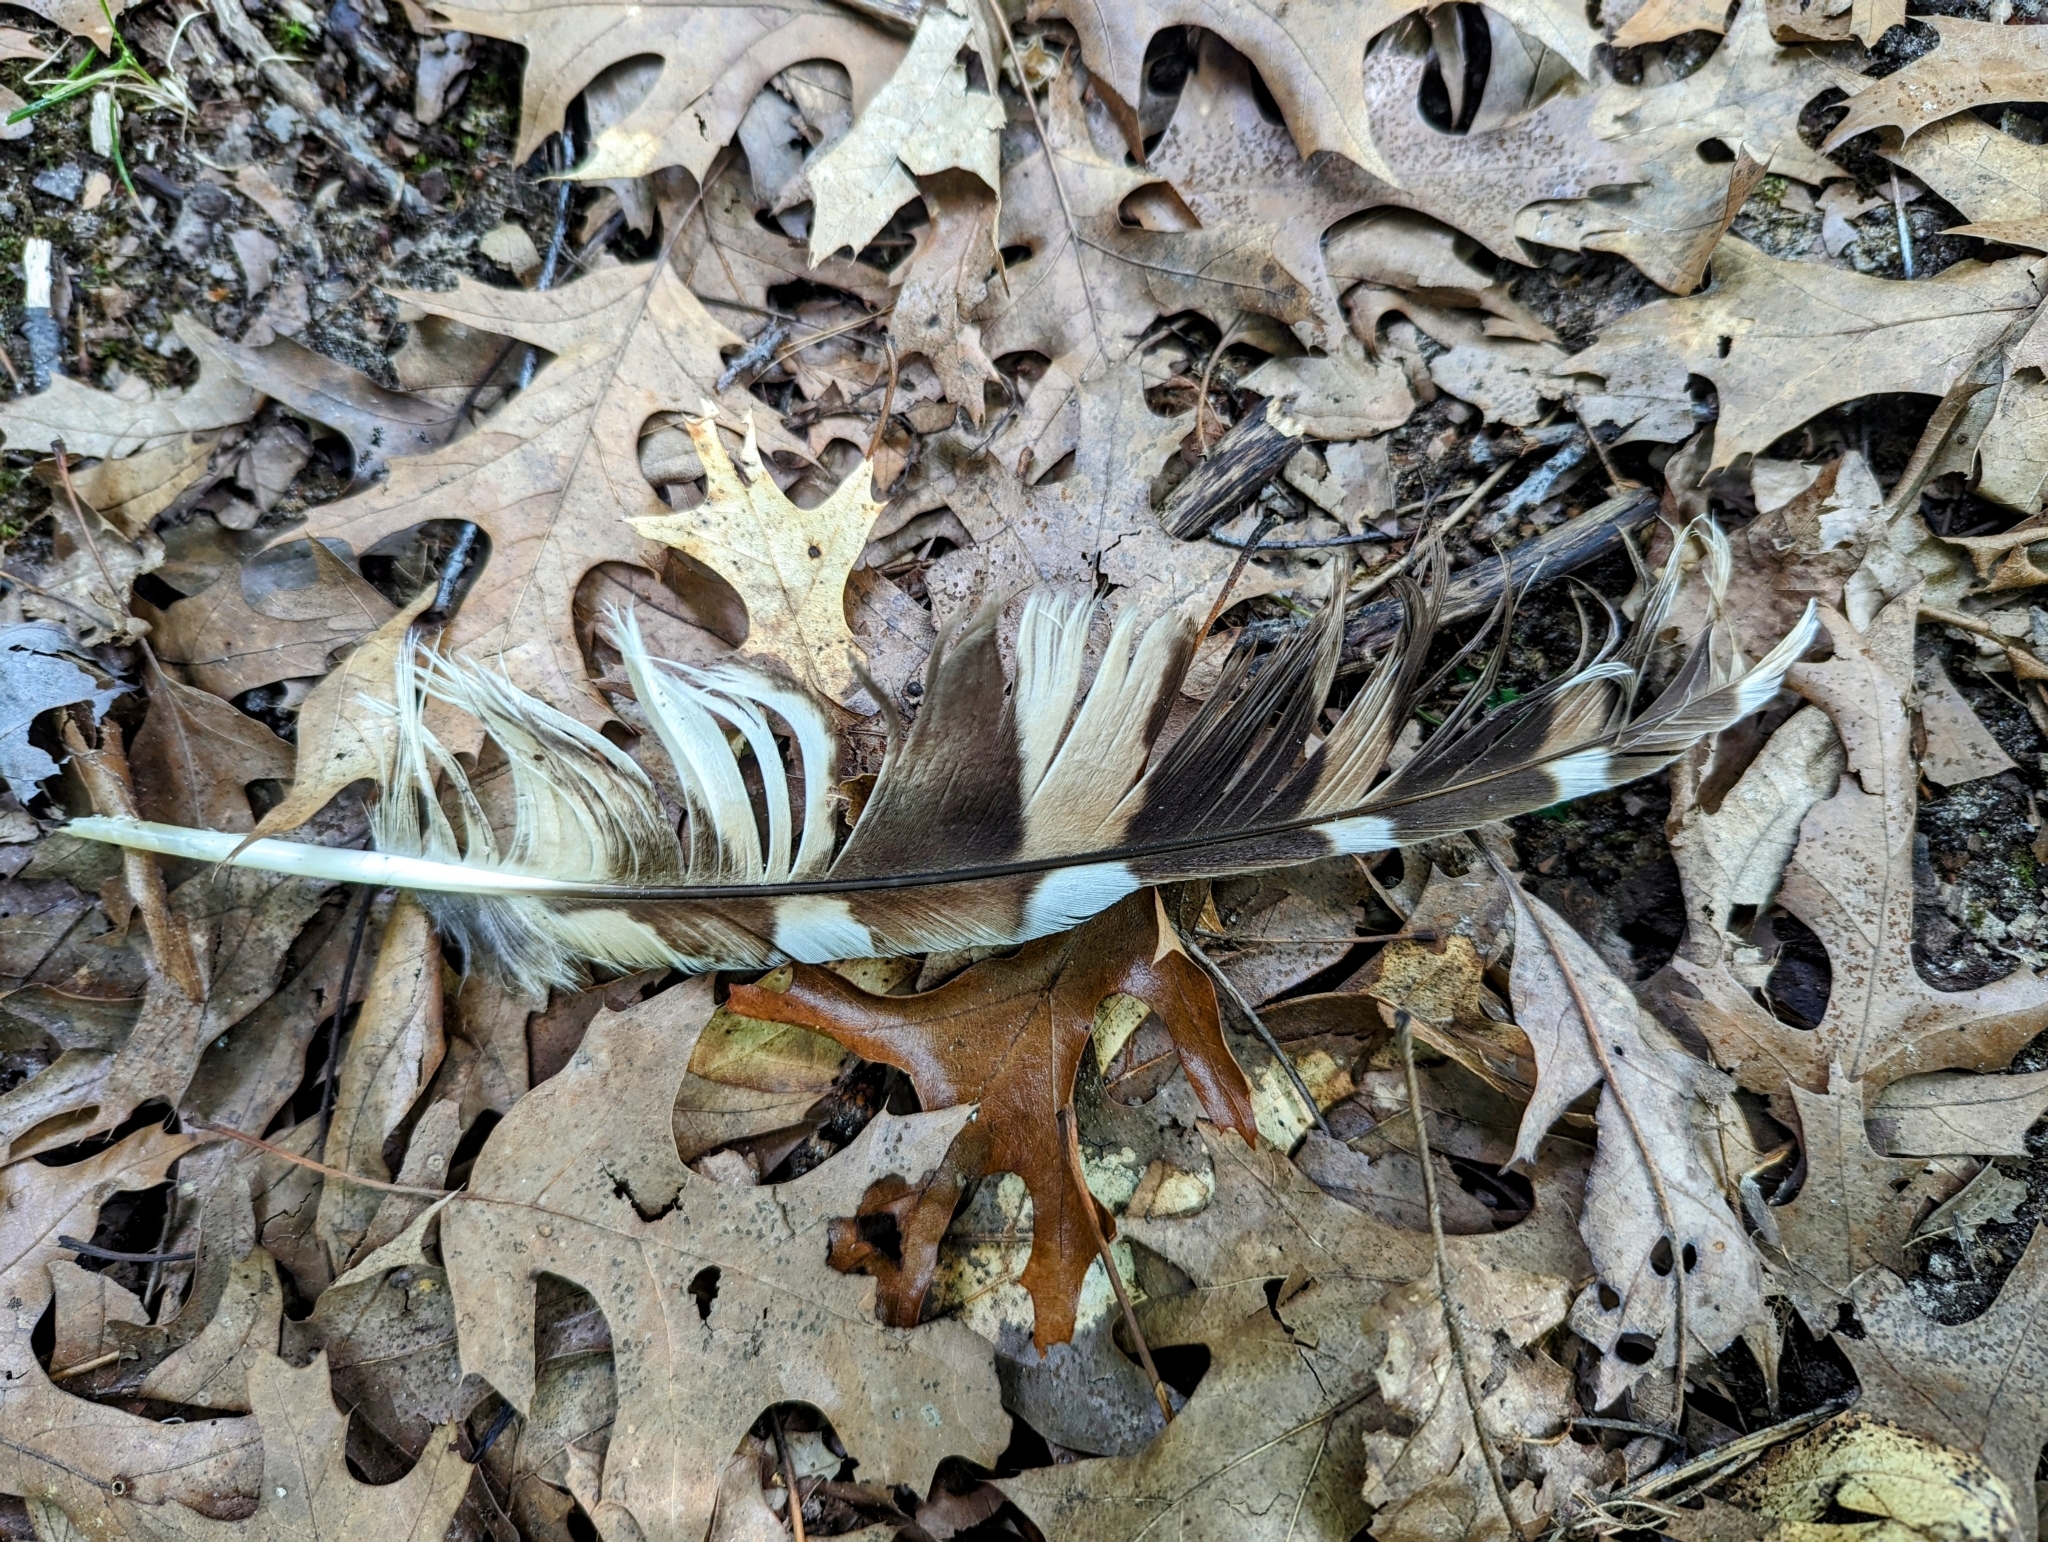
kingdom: Animalia
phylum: Chordata
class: Aves
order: Strigiformes
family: Strigidae
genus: Strix
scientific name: Strix varia
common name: Barred owl
